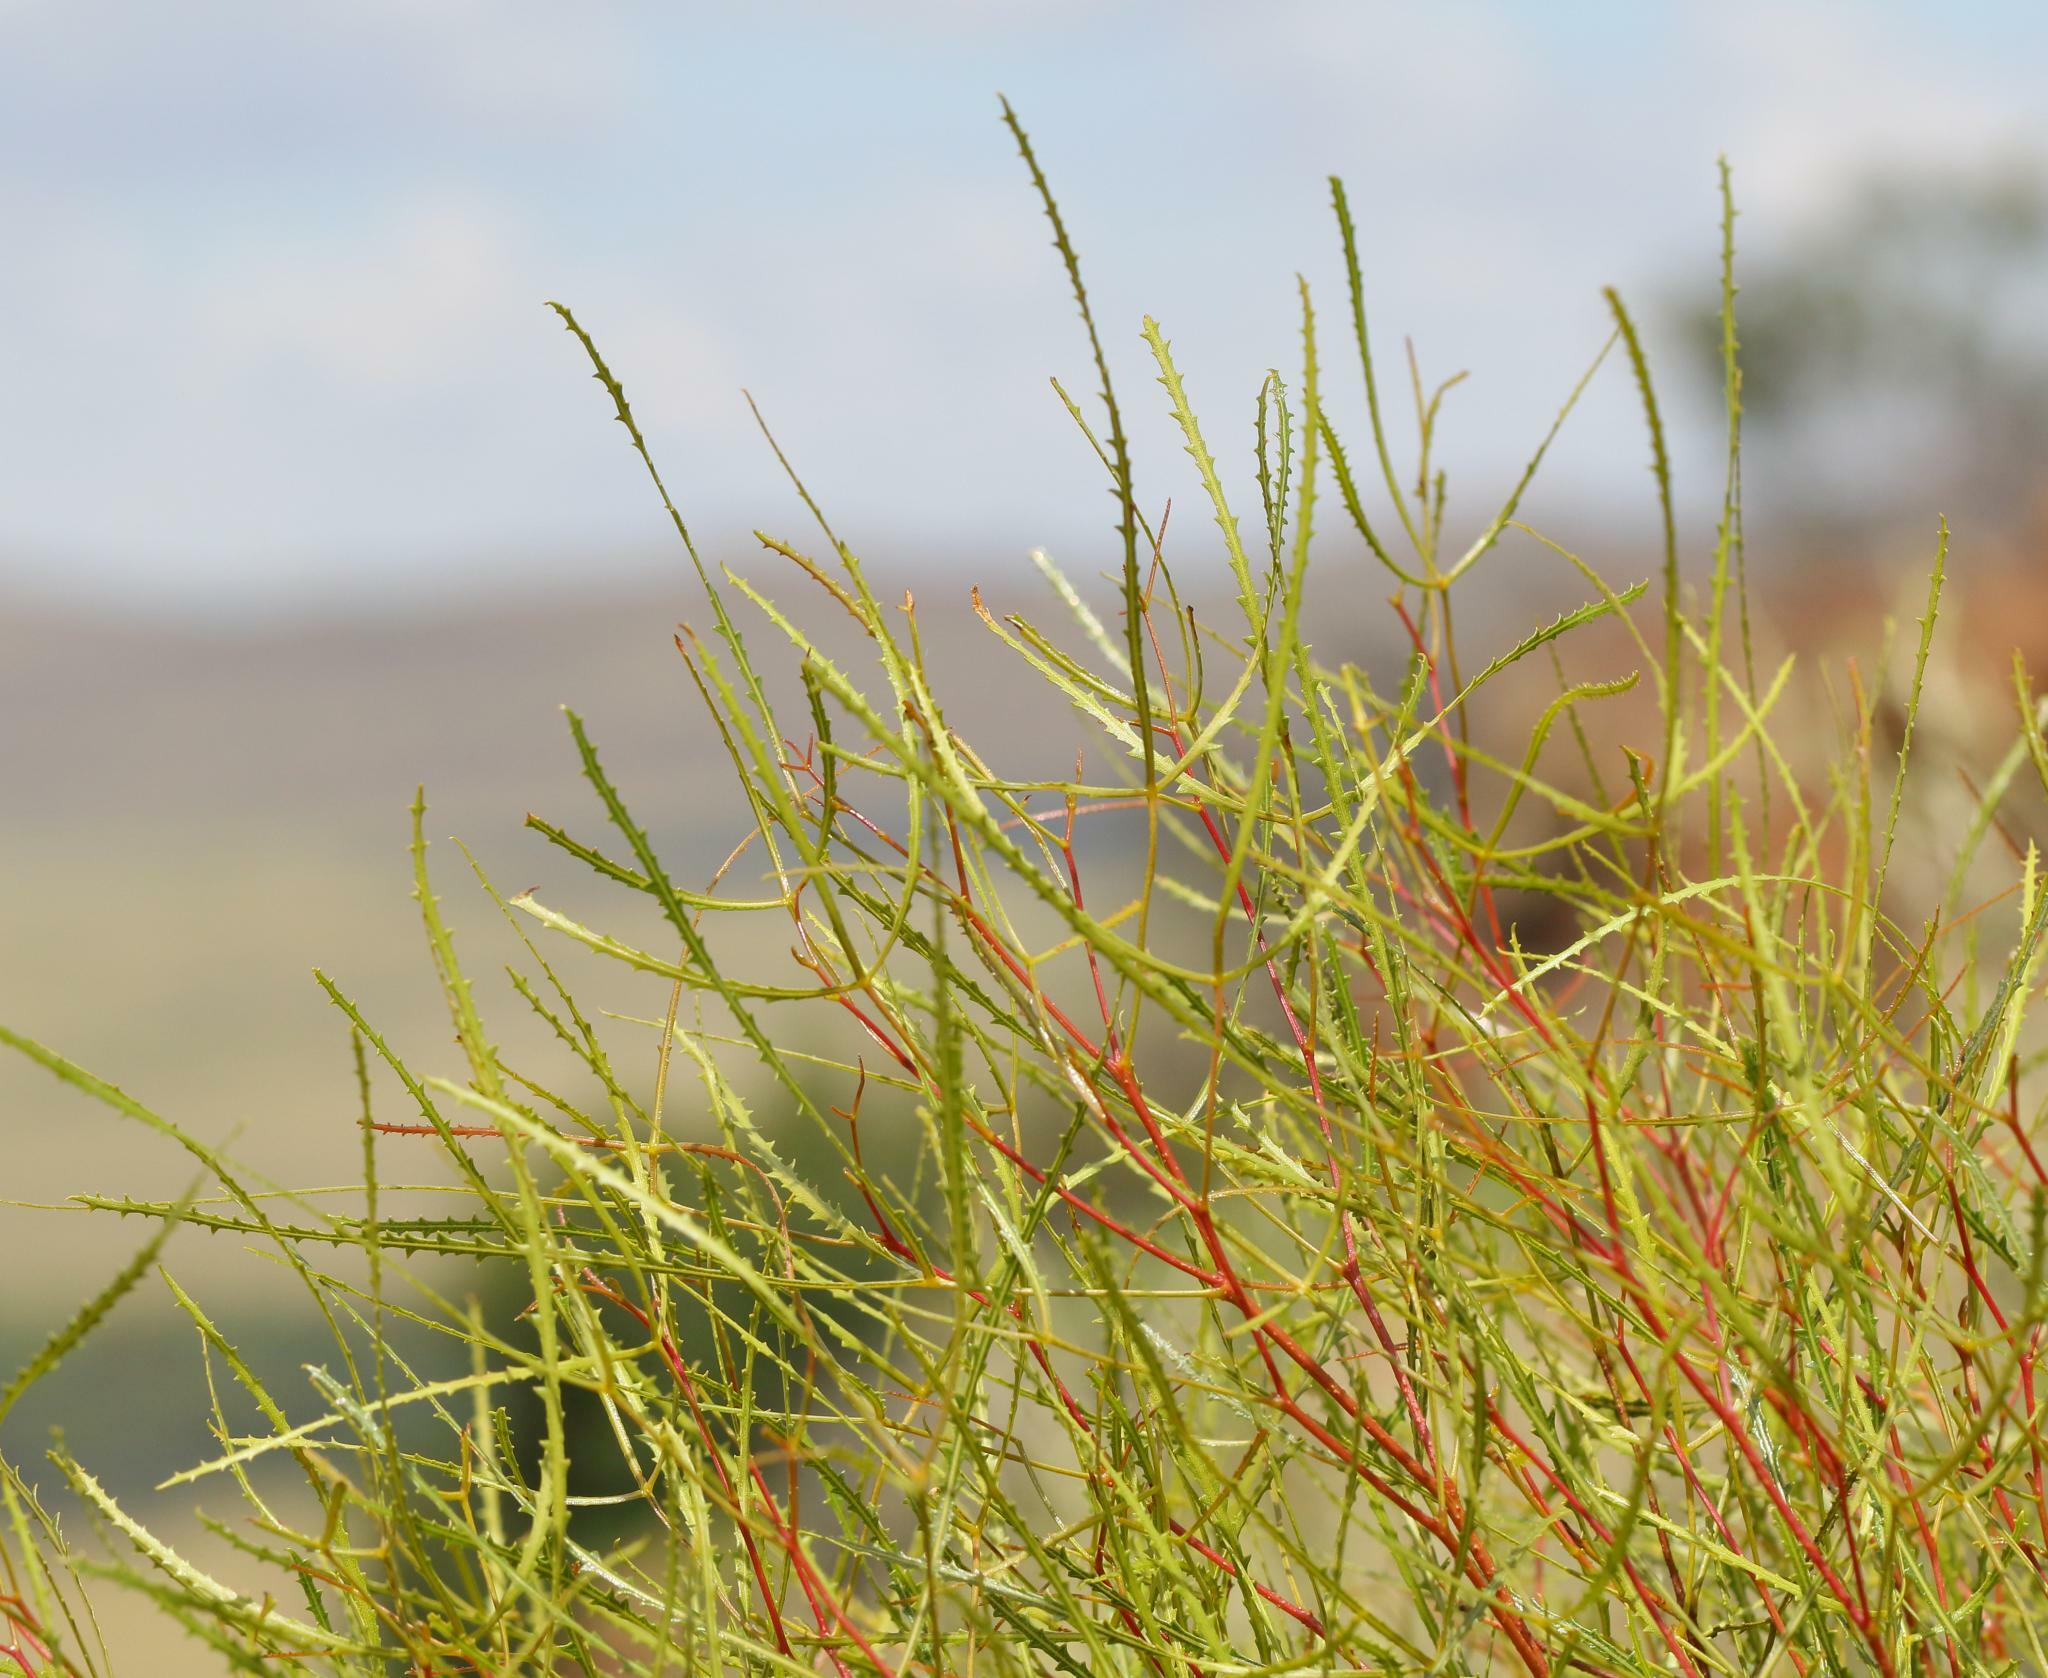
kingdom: Plantae
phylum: Tracheophyta
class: Magnoliopsida
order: Sapindales
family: Anacardiaceae
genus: Searsia
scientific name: Searsia erosa
